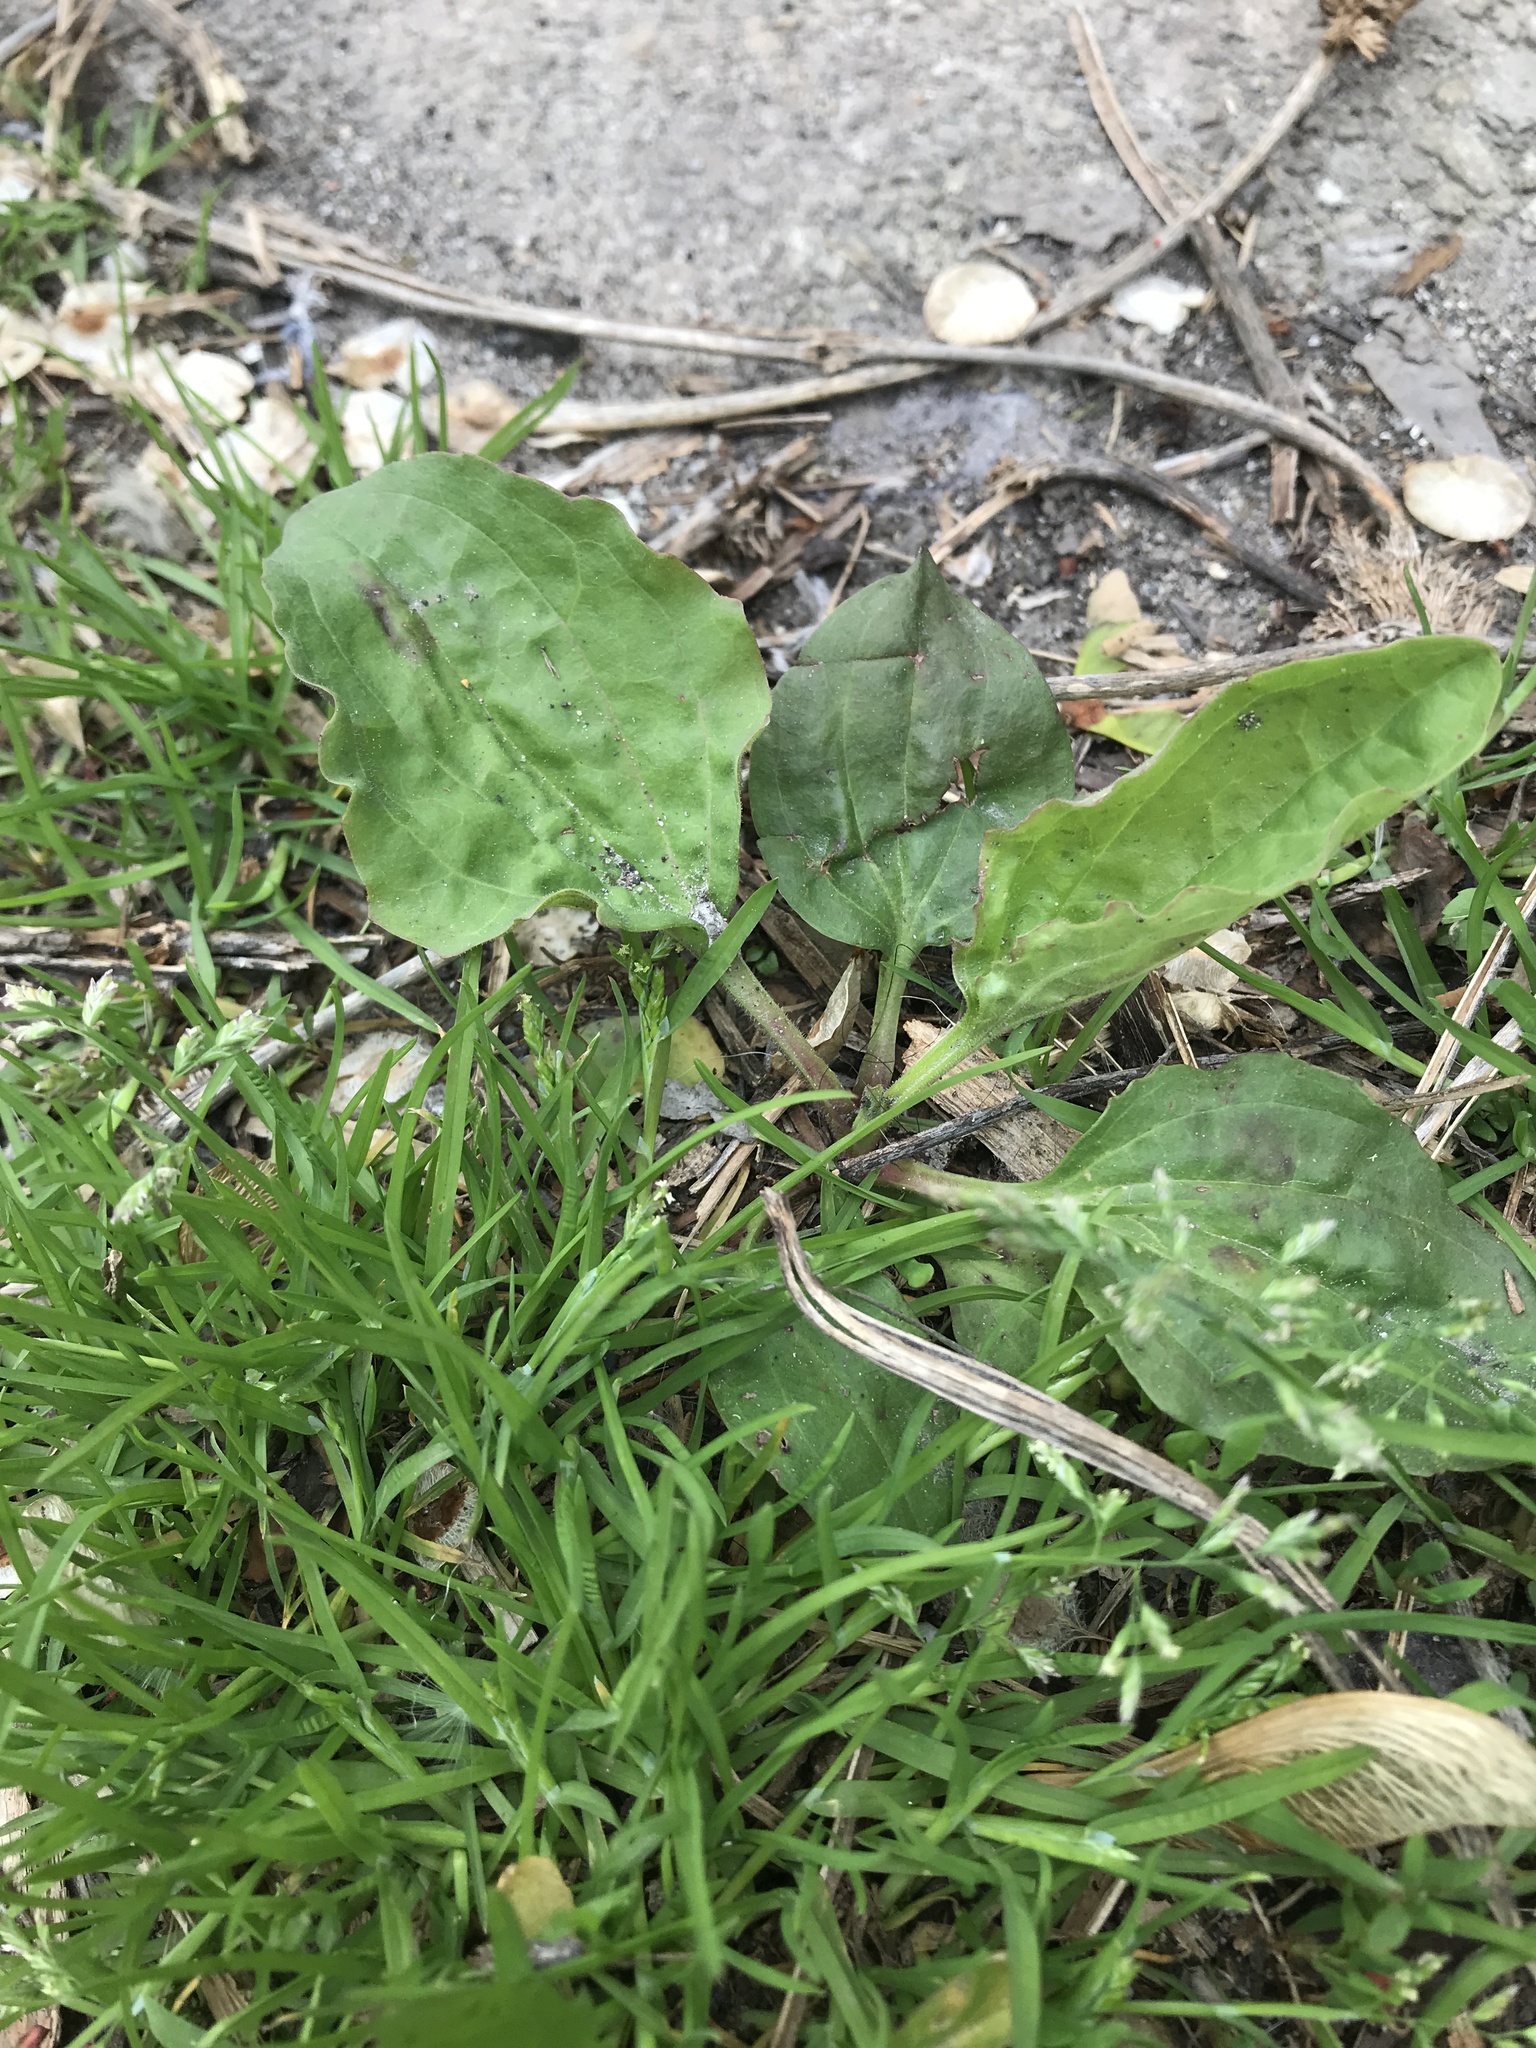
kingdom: Plantae
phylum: Tracheophyta
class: Magnoliopsida
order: Lamiales
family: Plantaginaceae
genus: Plantago
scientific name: Plantago rugelii
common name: American plantain
